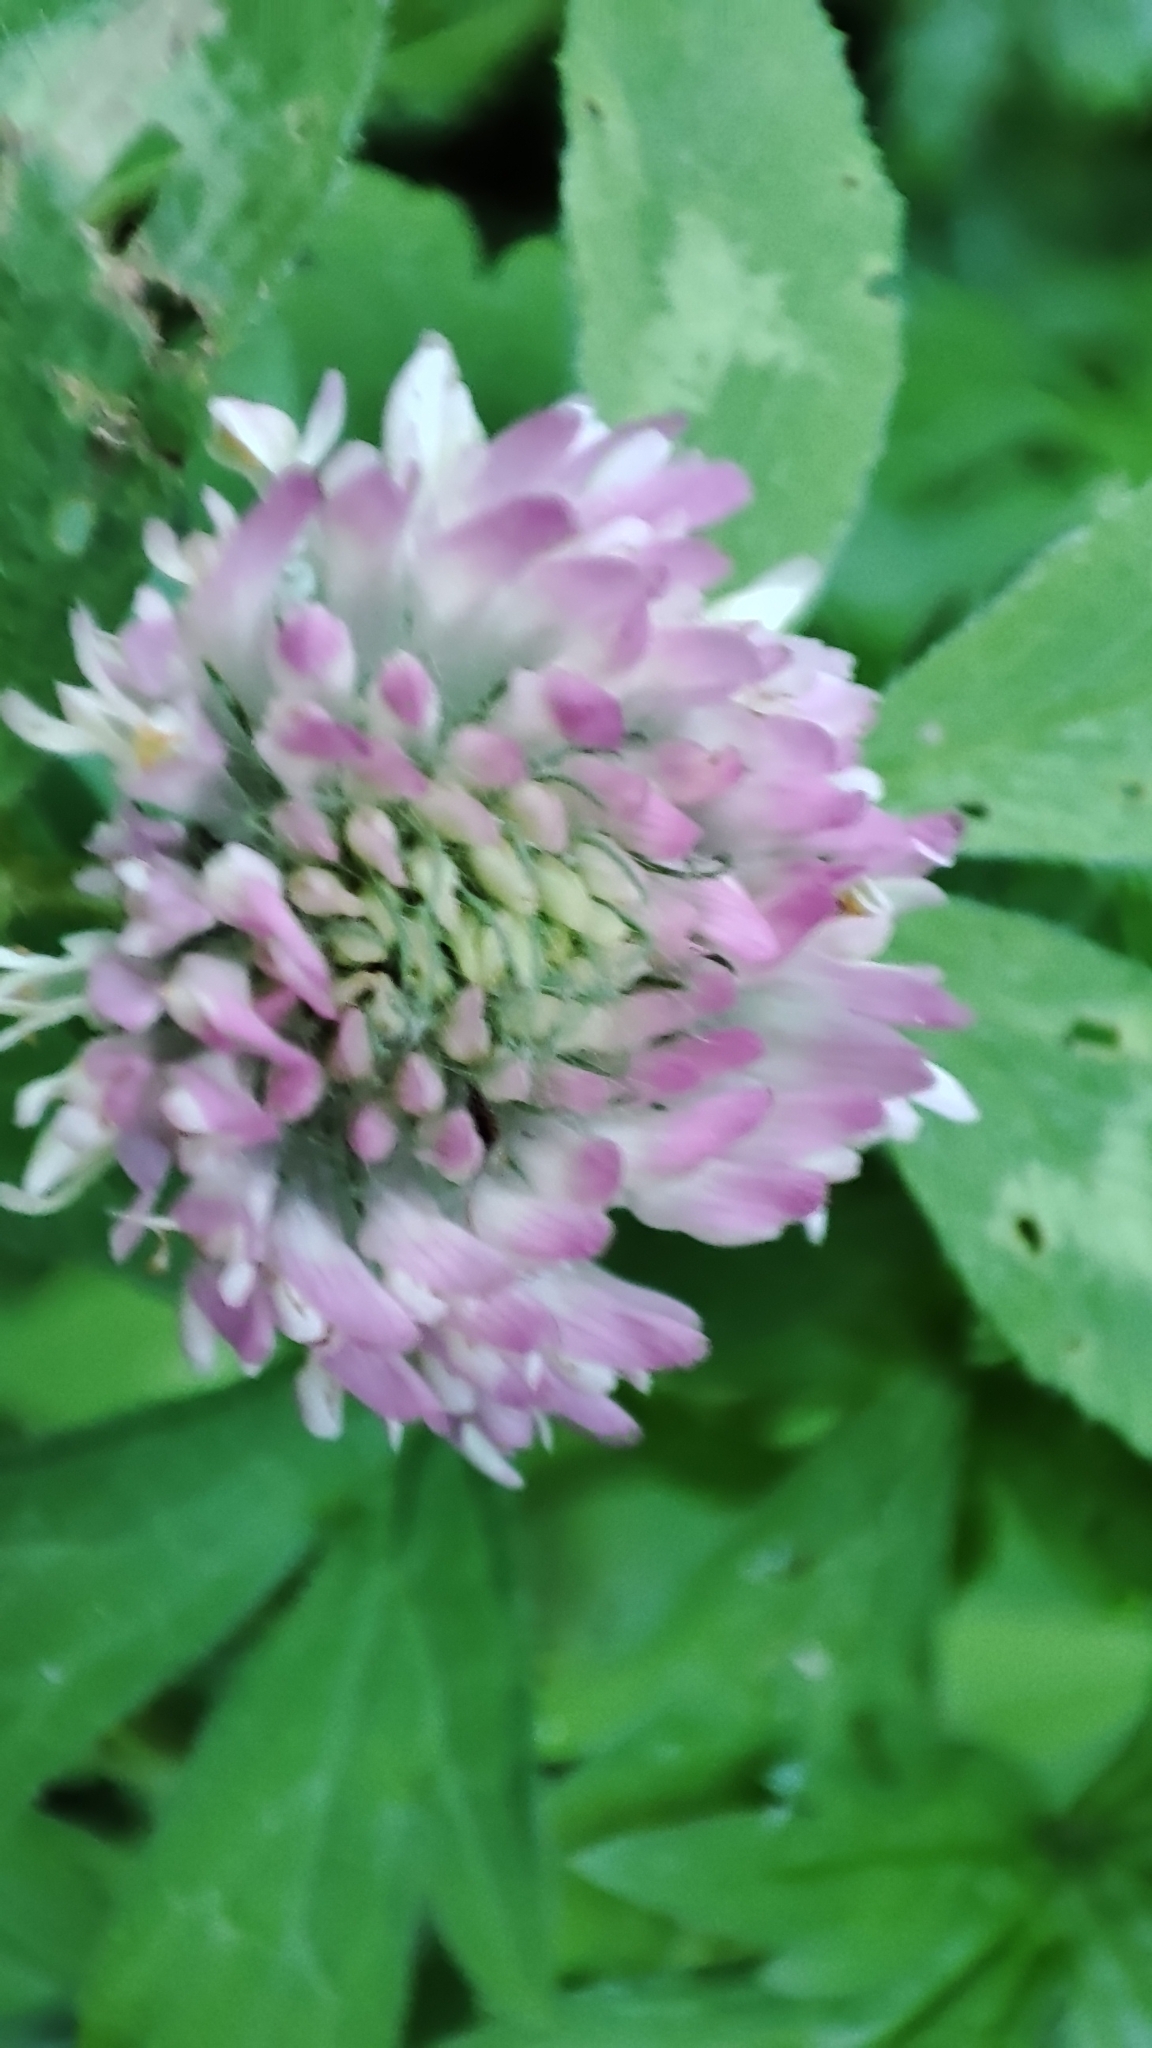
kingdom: Plantae
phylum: Tracheophyta
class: Magnoliopsida
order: Fabales
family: Fabaceae
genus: Trifolium
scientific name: Trifolium pratense
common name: Red clover
